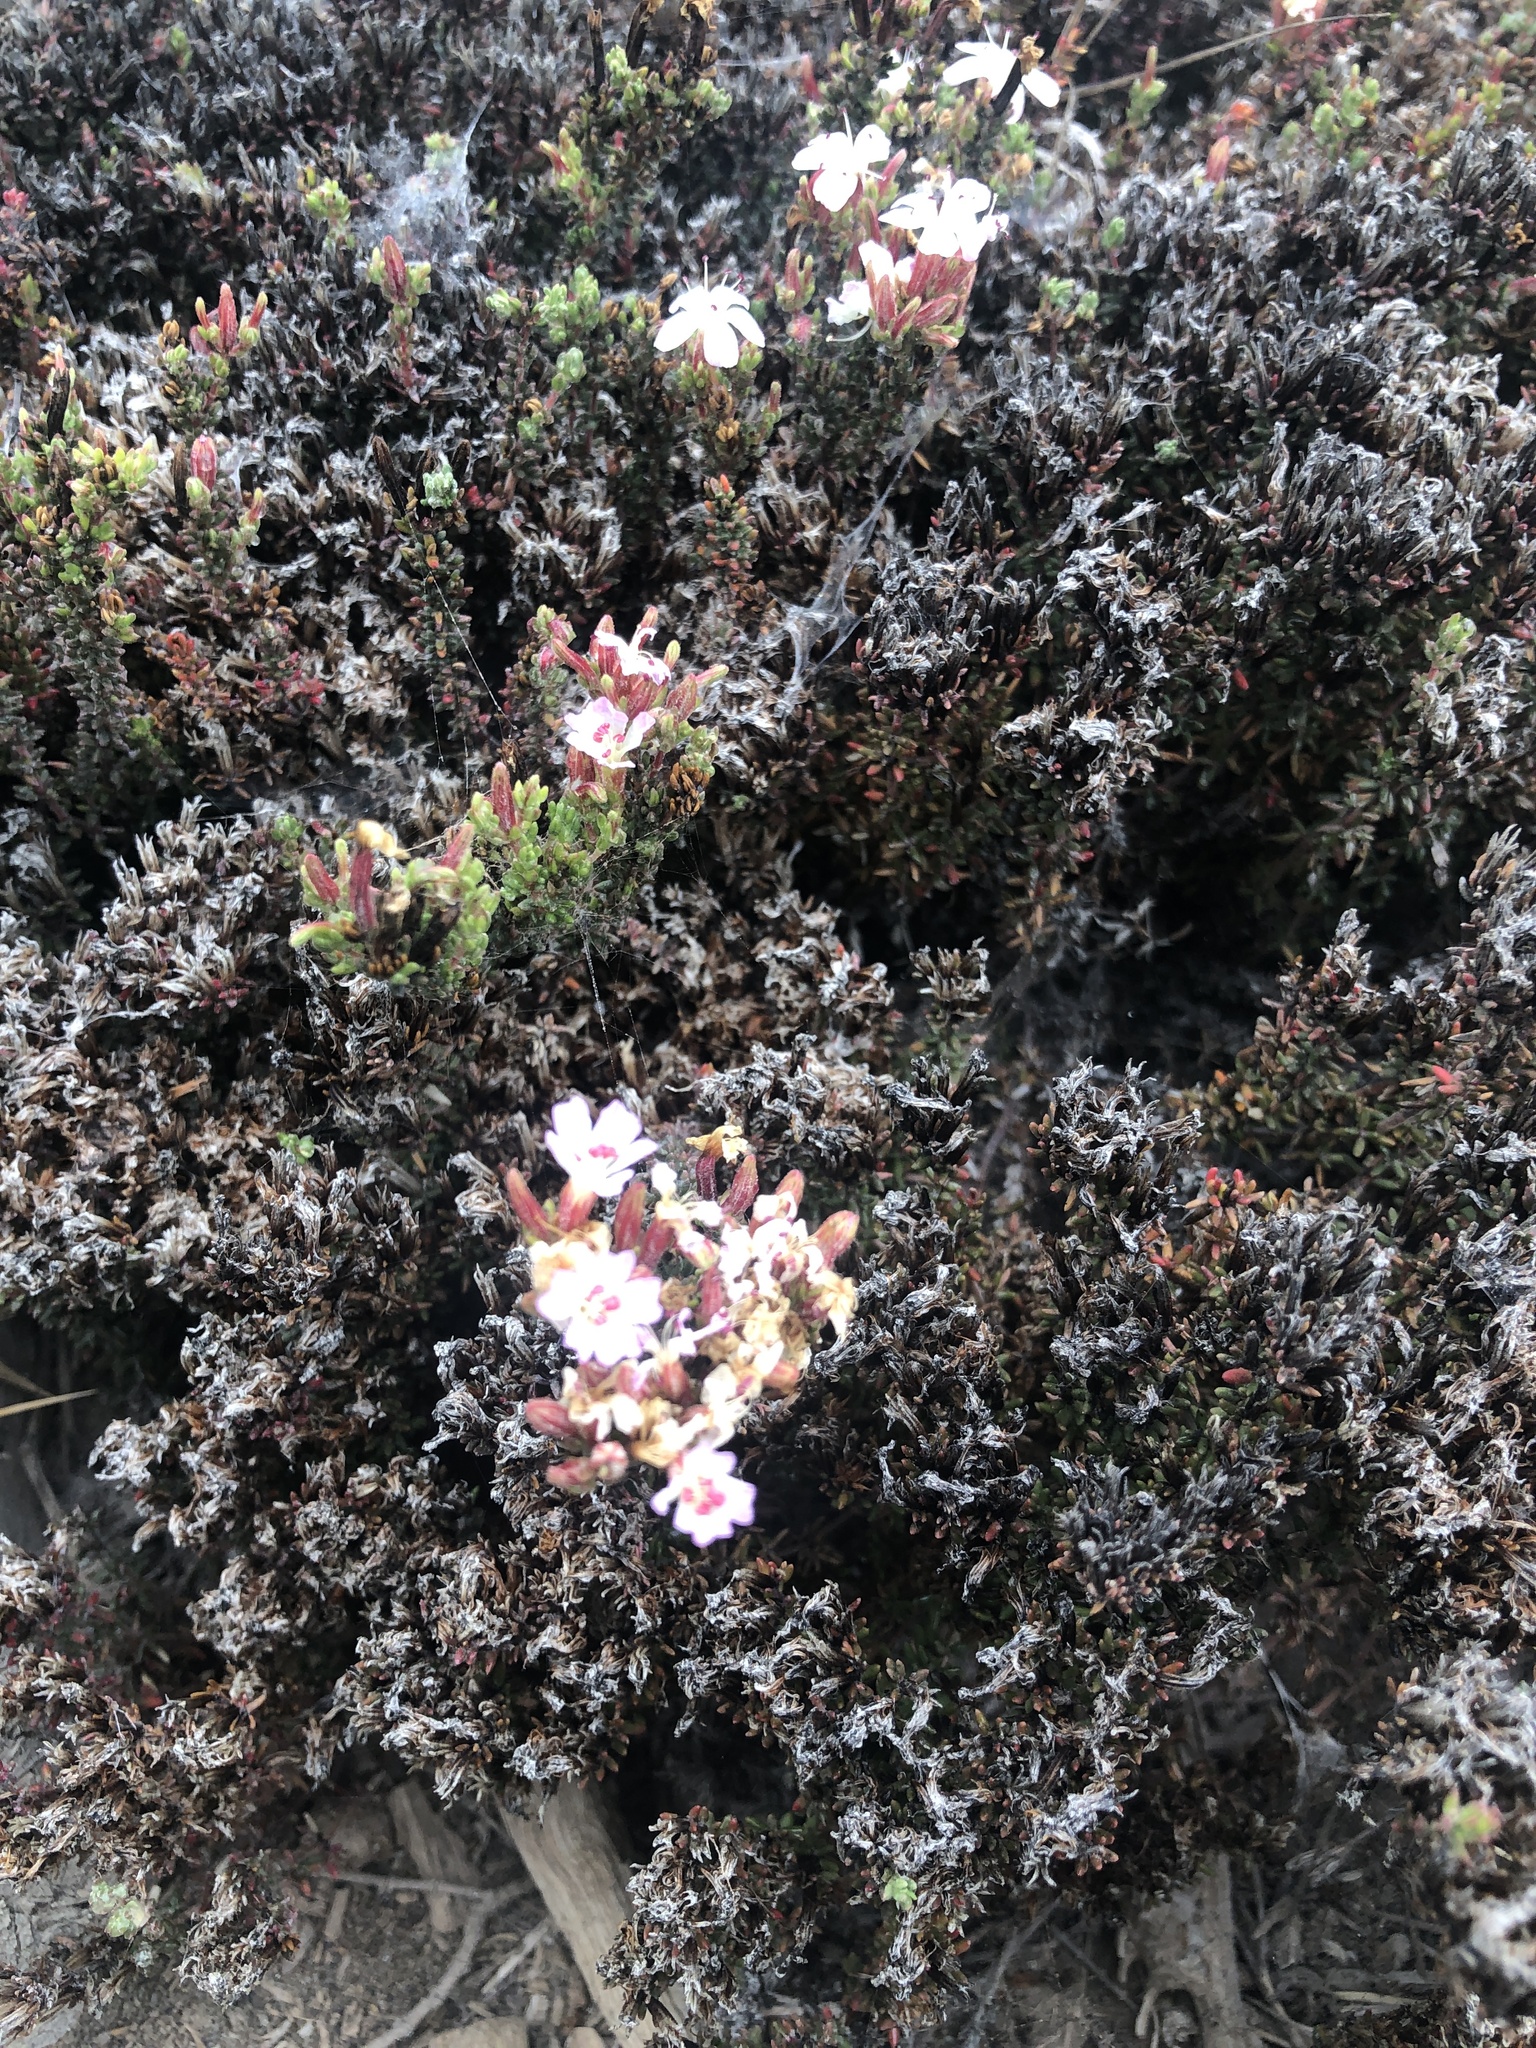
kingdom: Plantae
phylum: Tracheophyta
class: Magnoliopsida
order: Caryophyllales
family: Frankeniaceae
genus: Frankenia
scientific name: Frankenia chilensis
